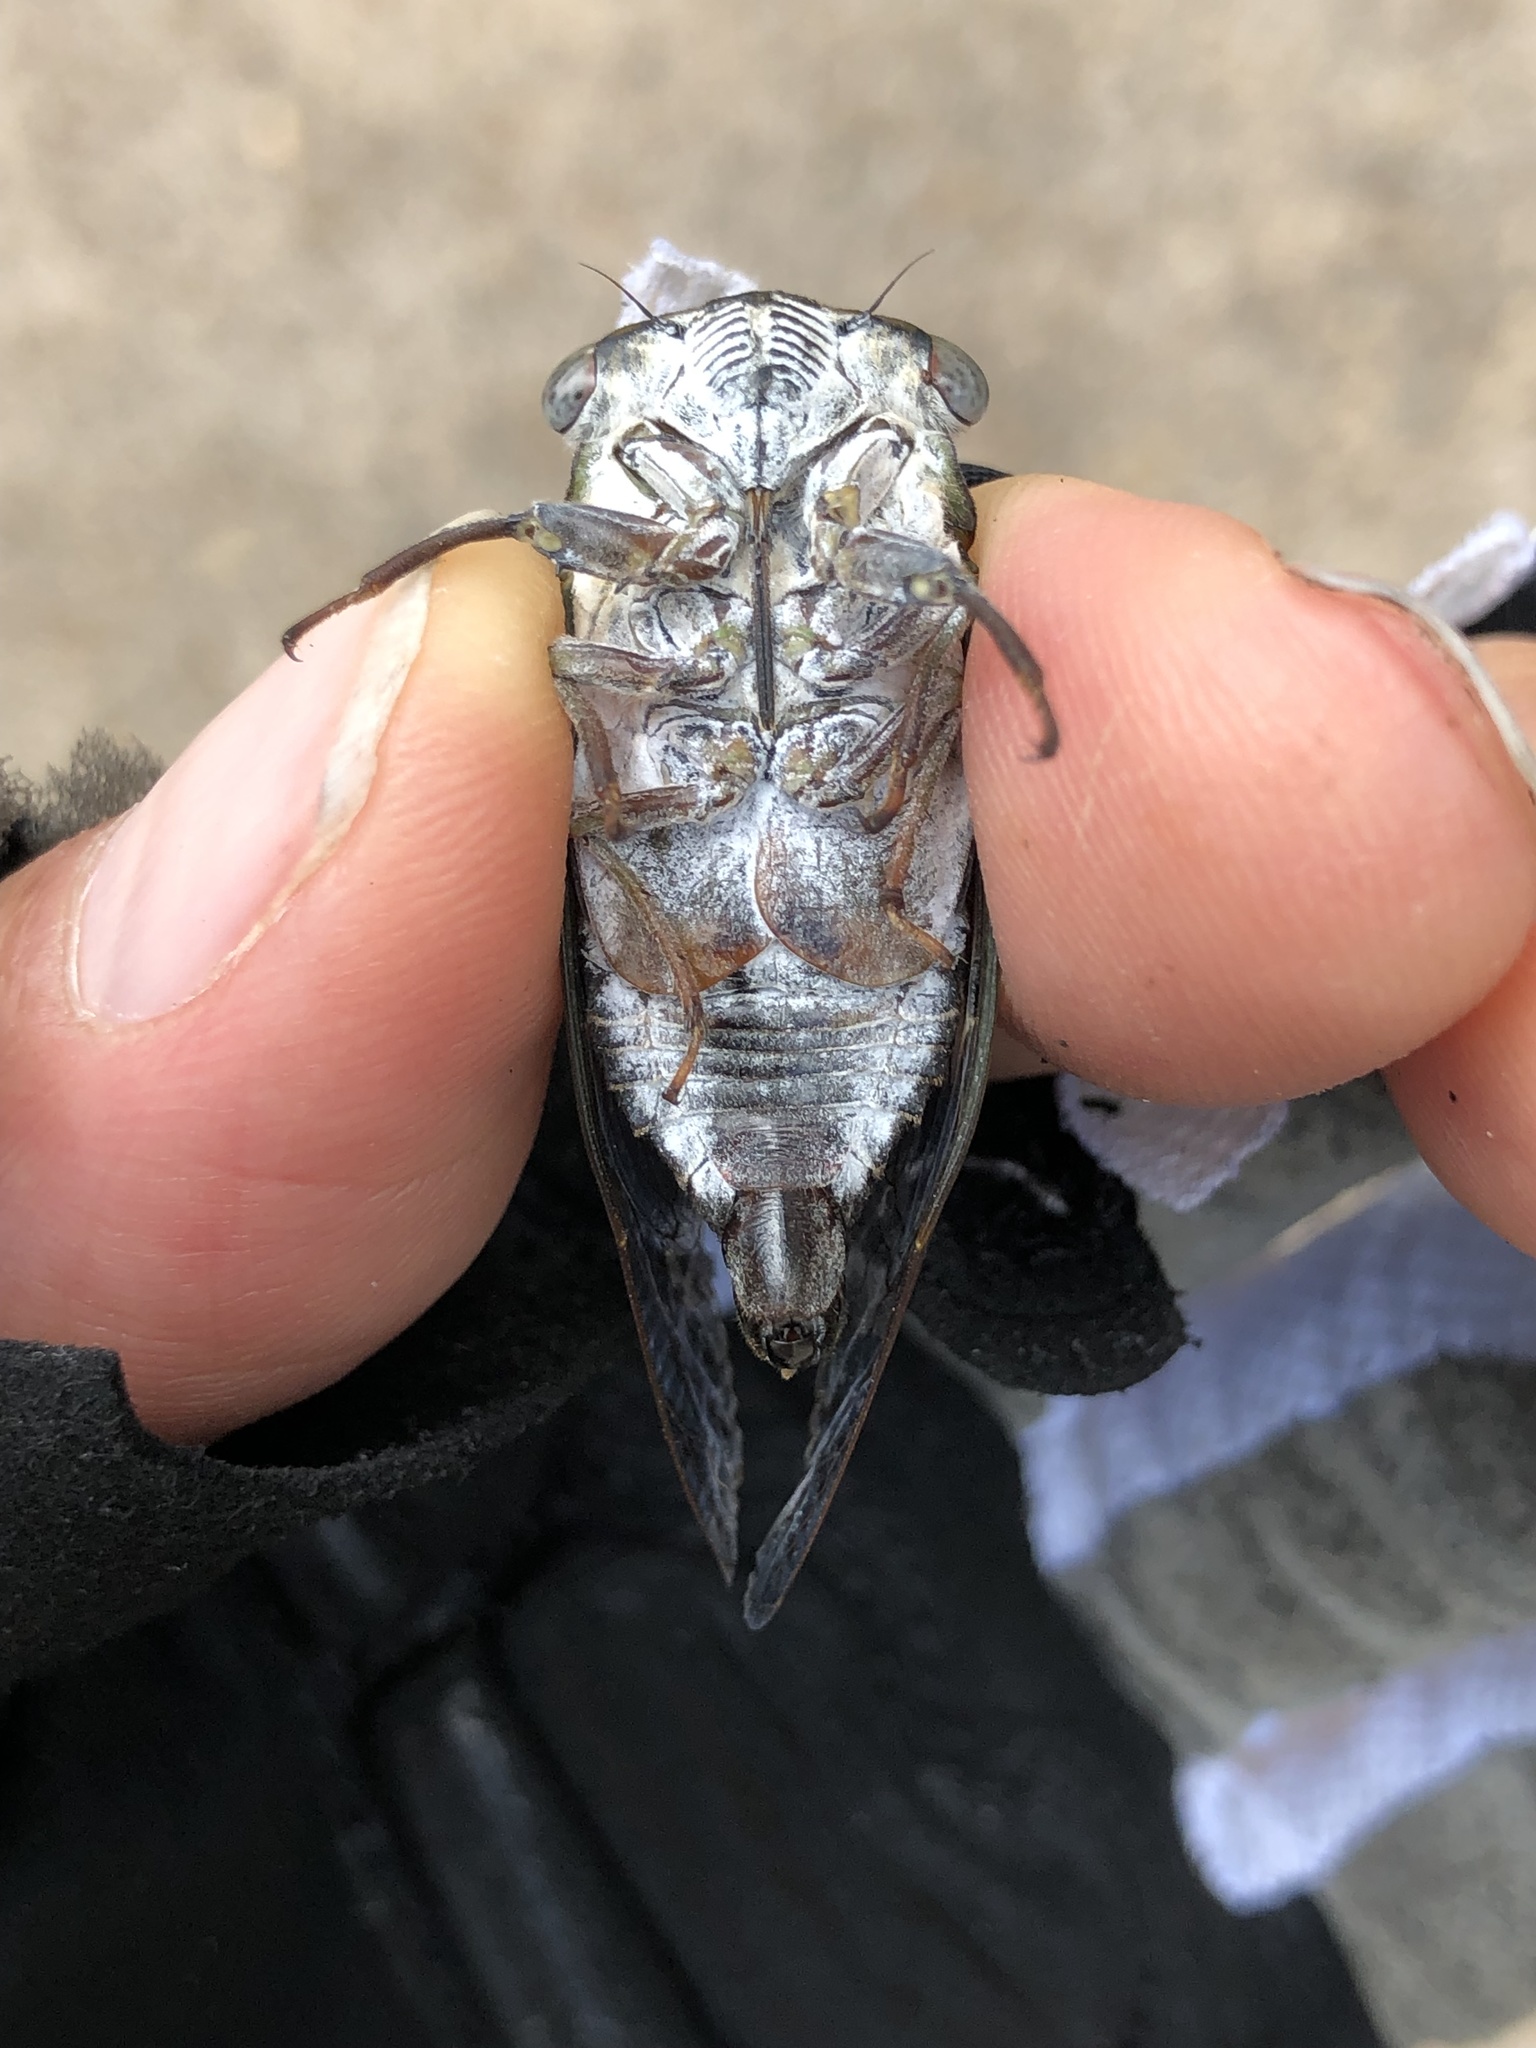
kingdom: Animalia
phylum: Arthropoda
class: Insecta
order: Hemiptera
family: Cicadidae
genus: Neotibicen
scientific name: Neotibicen davisi
